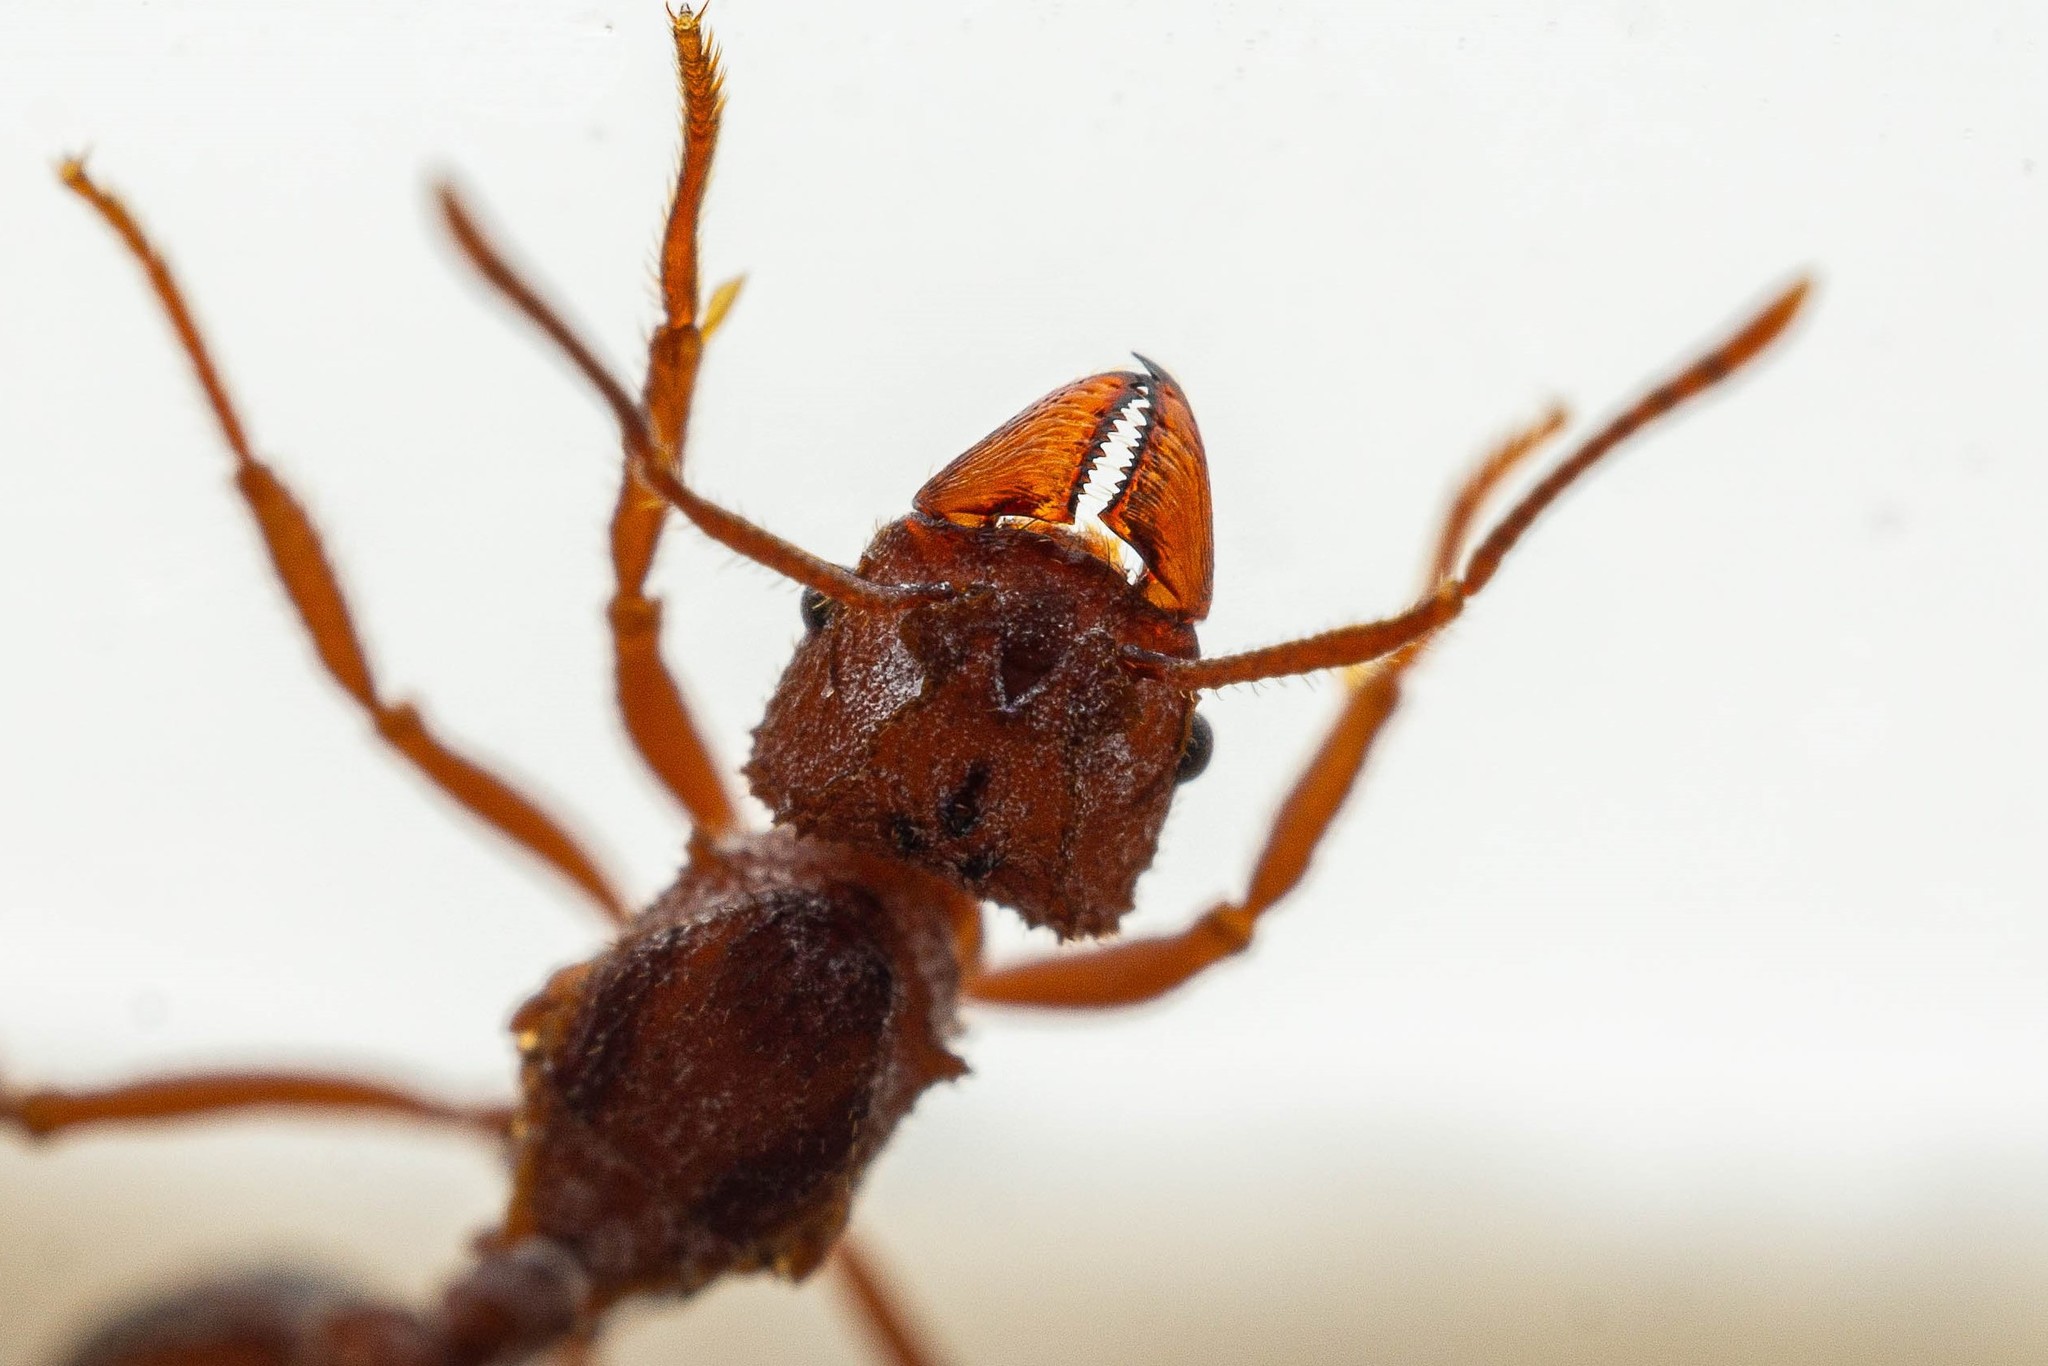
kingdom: Animalia
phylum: Arthropoda
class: Insecta
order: Hymenoptera
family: Formicidae
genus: Trachymyrmex
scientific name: Trachymyrmex desertorum
